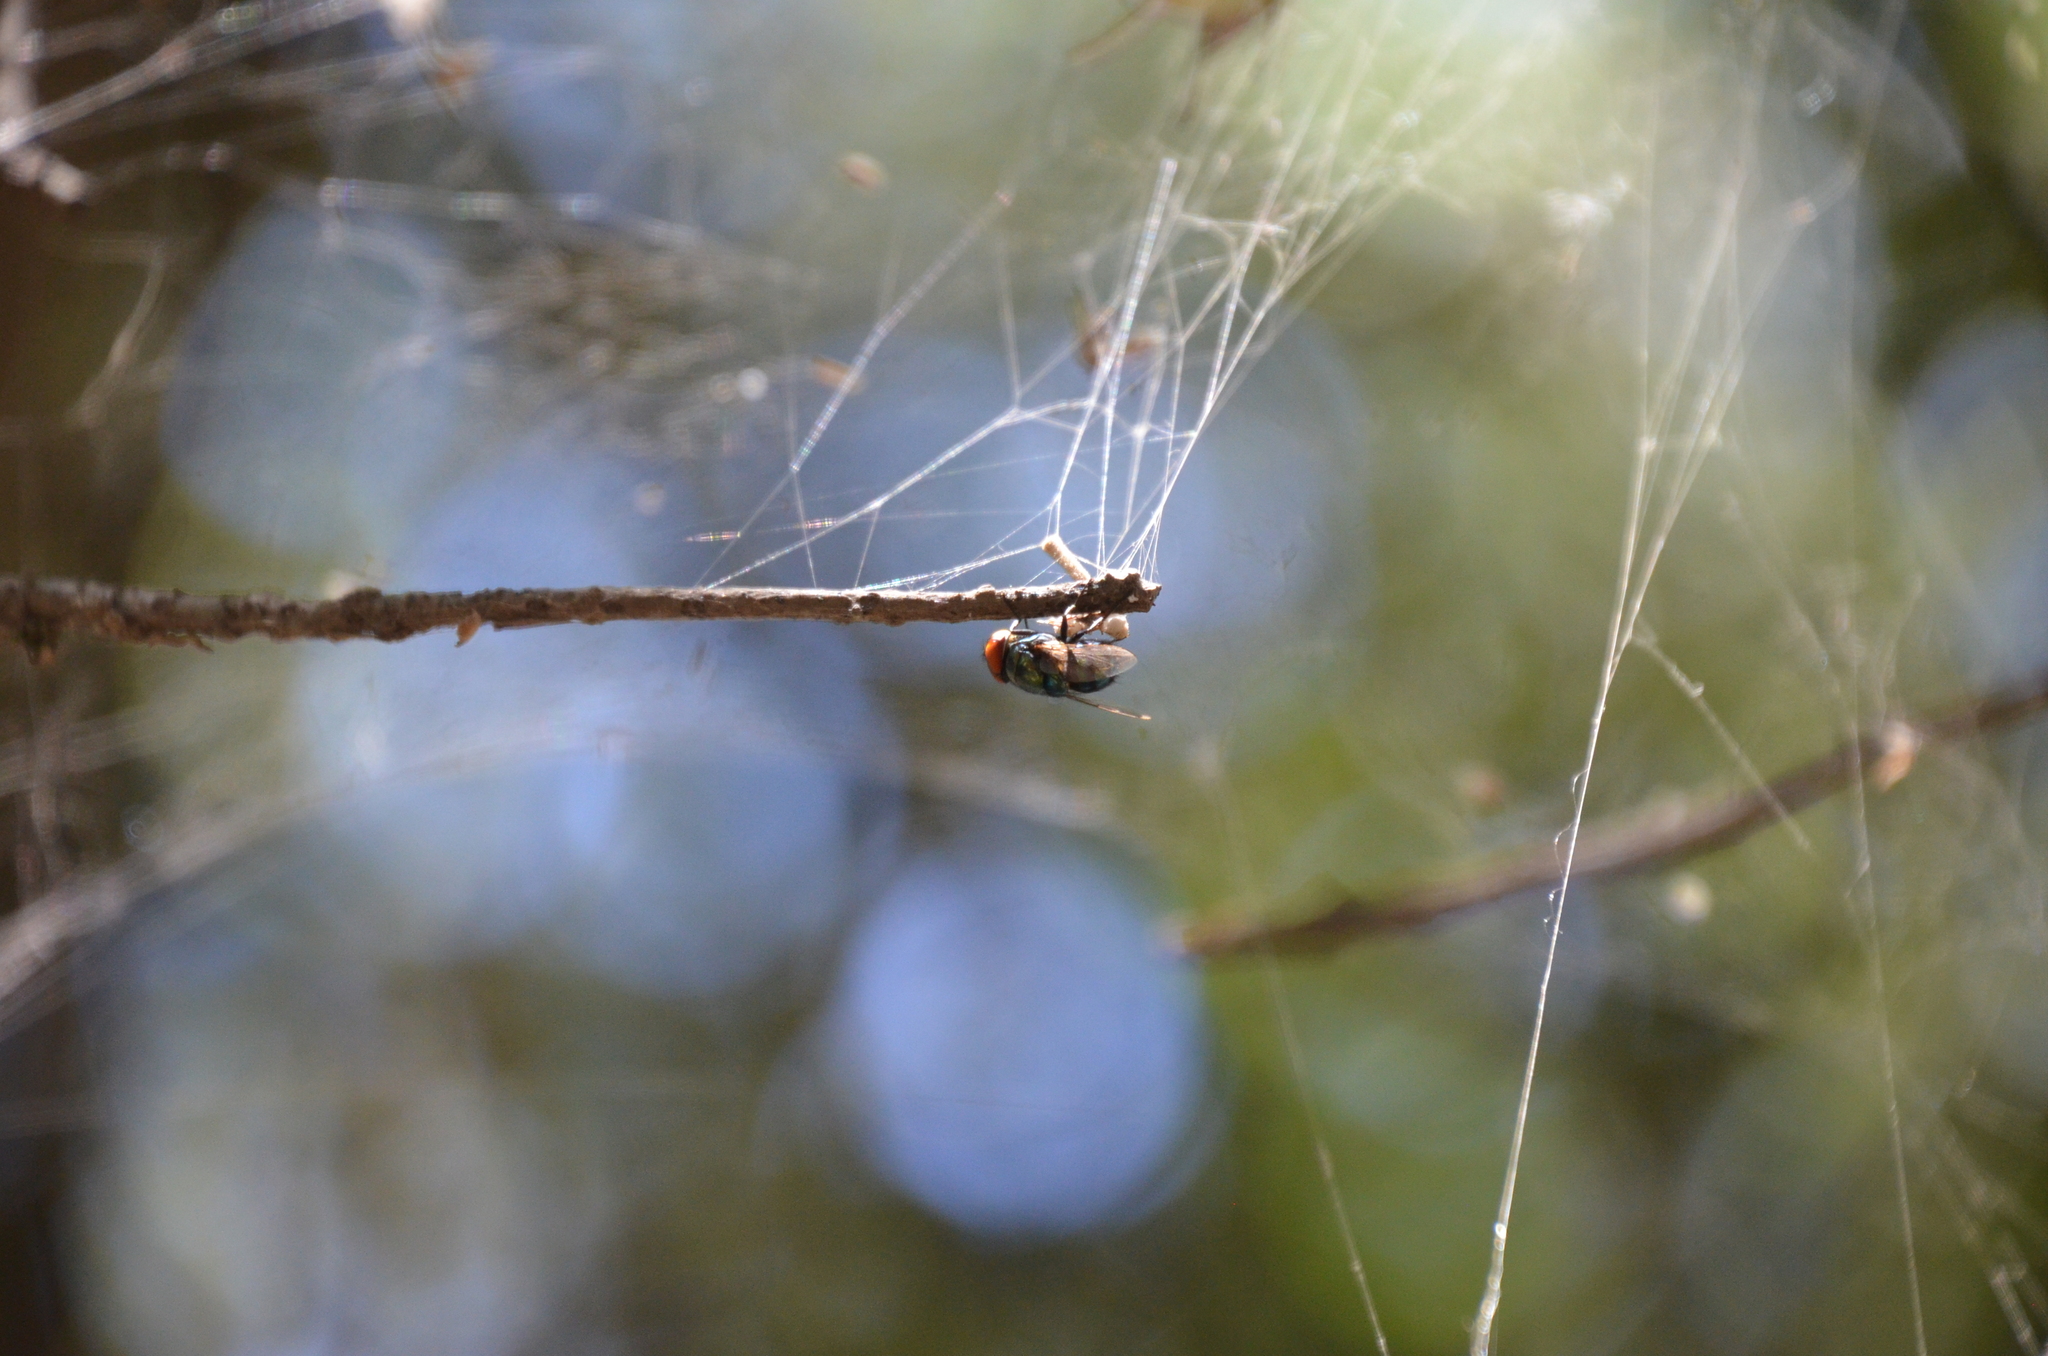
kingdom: Animalia
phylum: Arthropoda
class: Insecta
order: Diptera
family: Calliphoridae
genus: Chrysomya
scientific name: Chrysomya megacephala
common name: Blow fly
